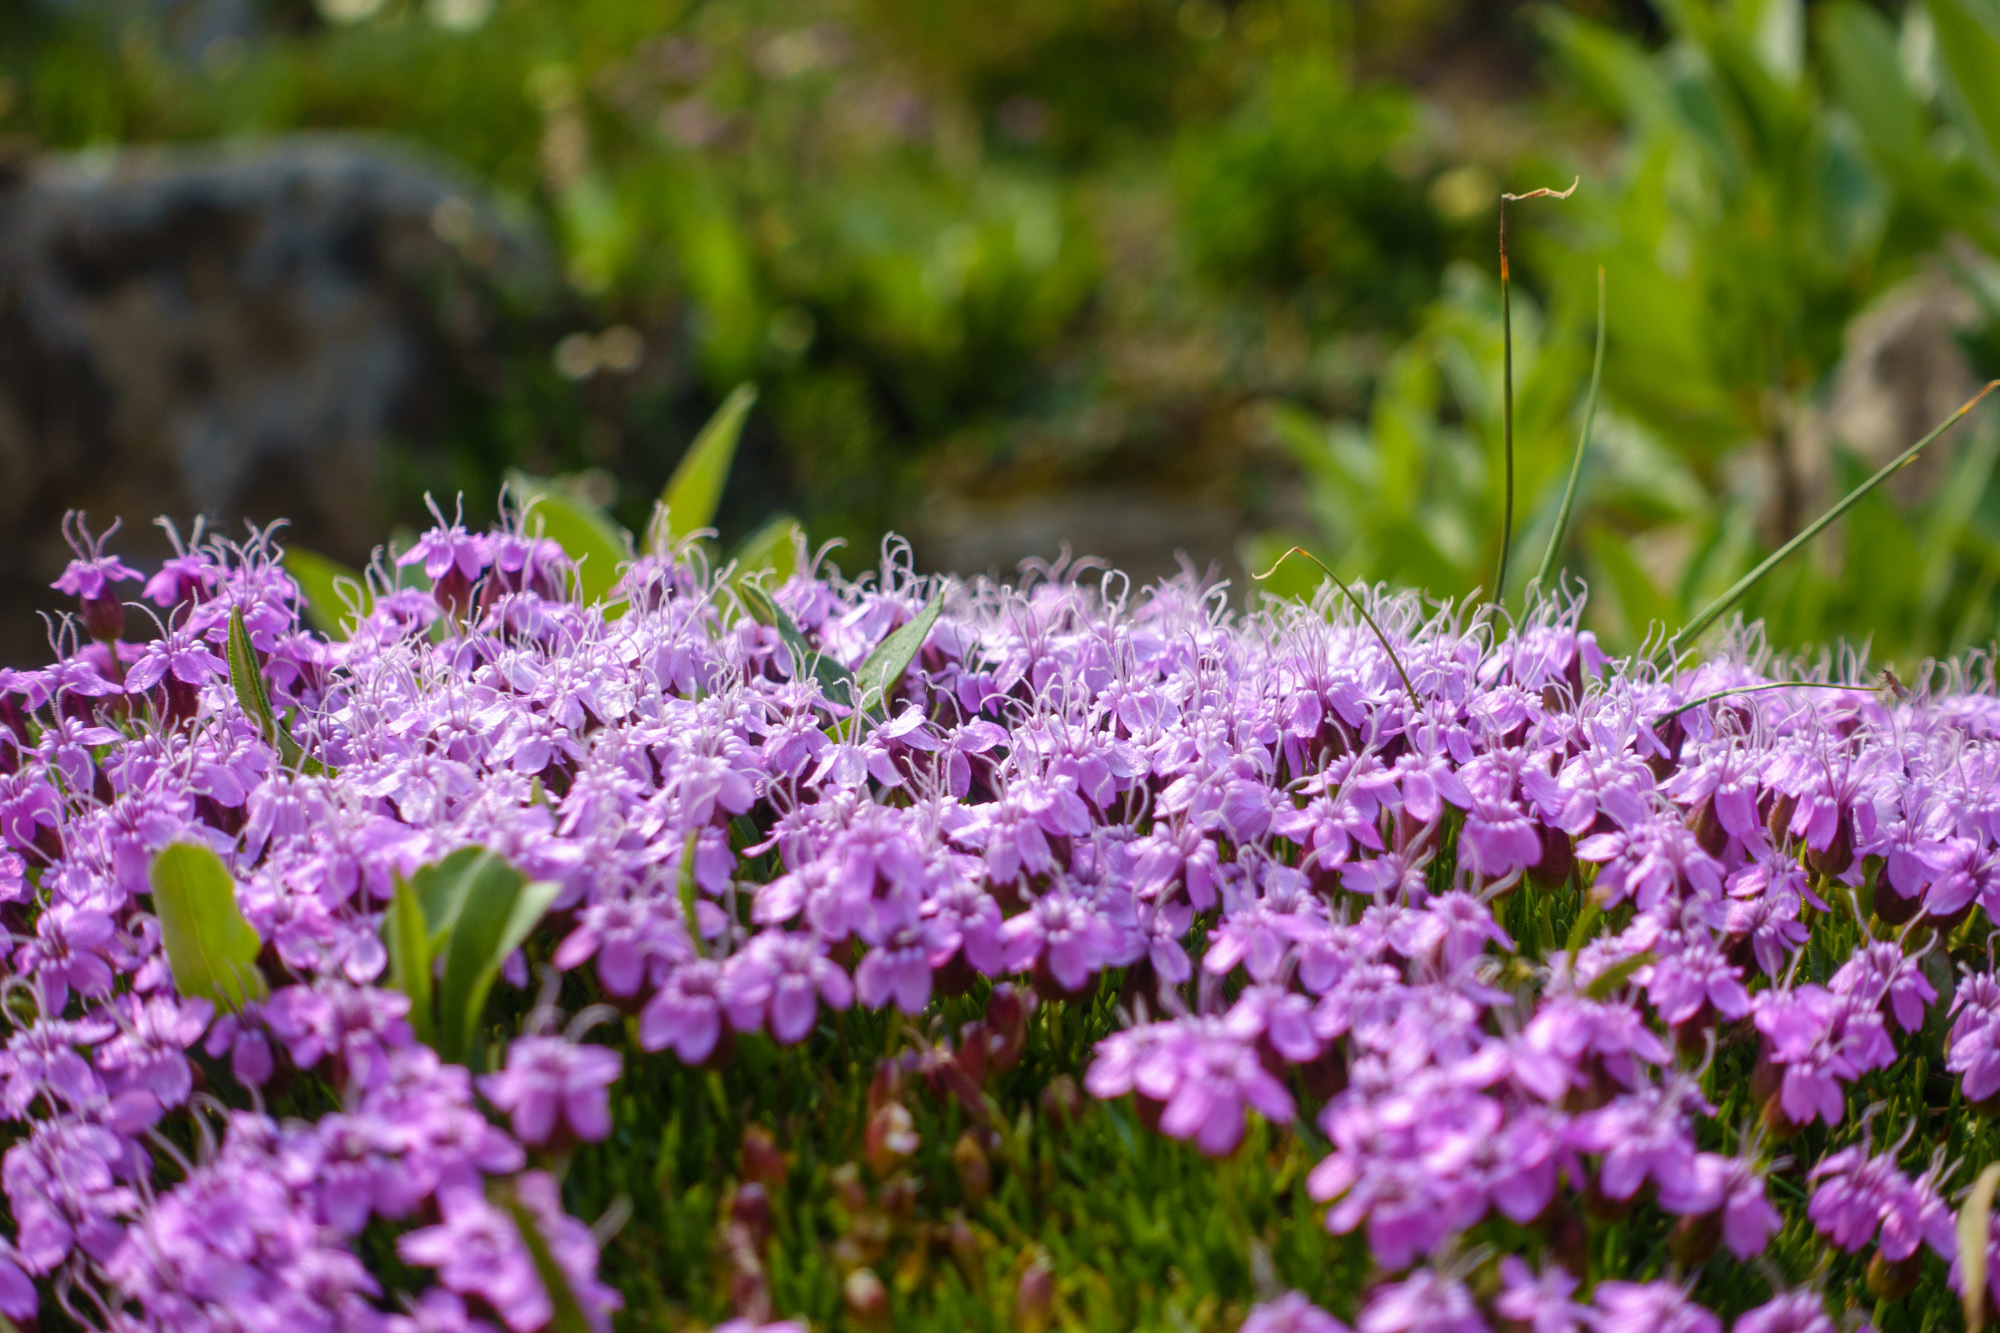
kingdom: Plantae
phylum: Tracheophyta
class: Magnoliopsida
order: Caryophyllales
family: Caryophyllaceae
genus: Silene
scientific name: Silene acaulis
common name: Moss campion
